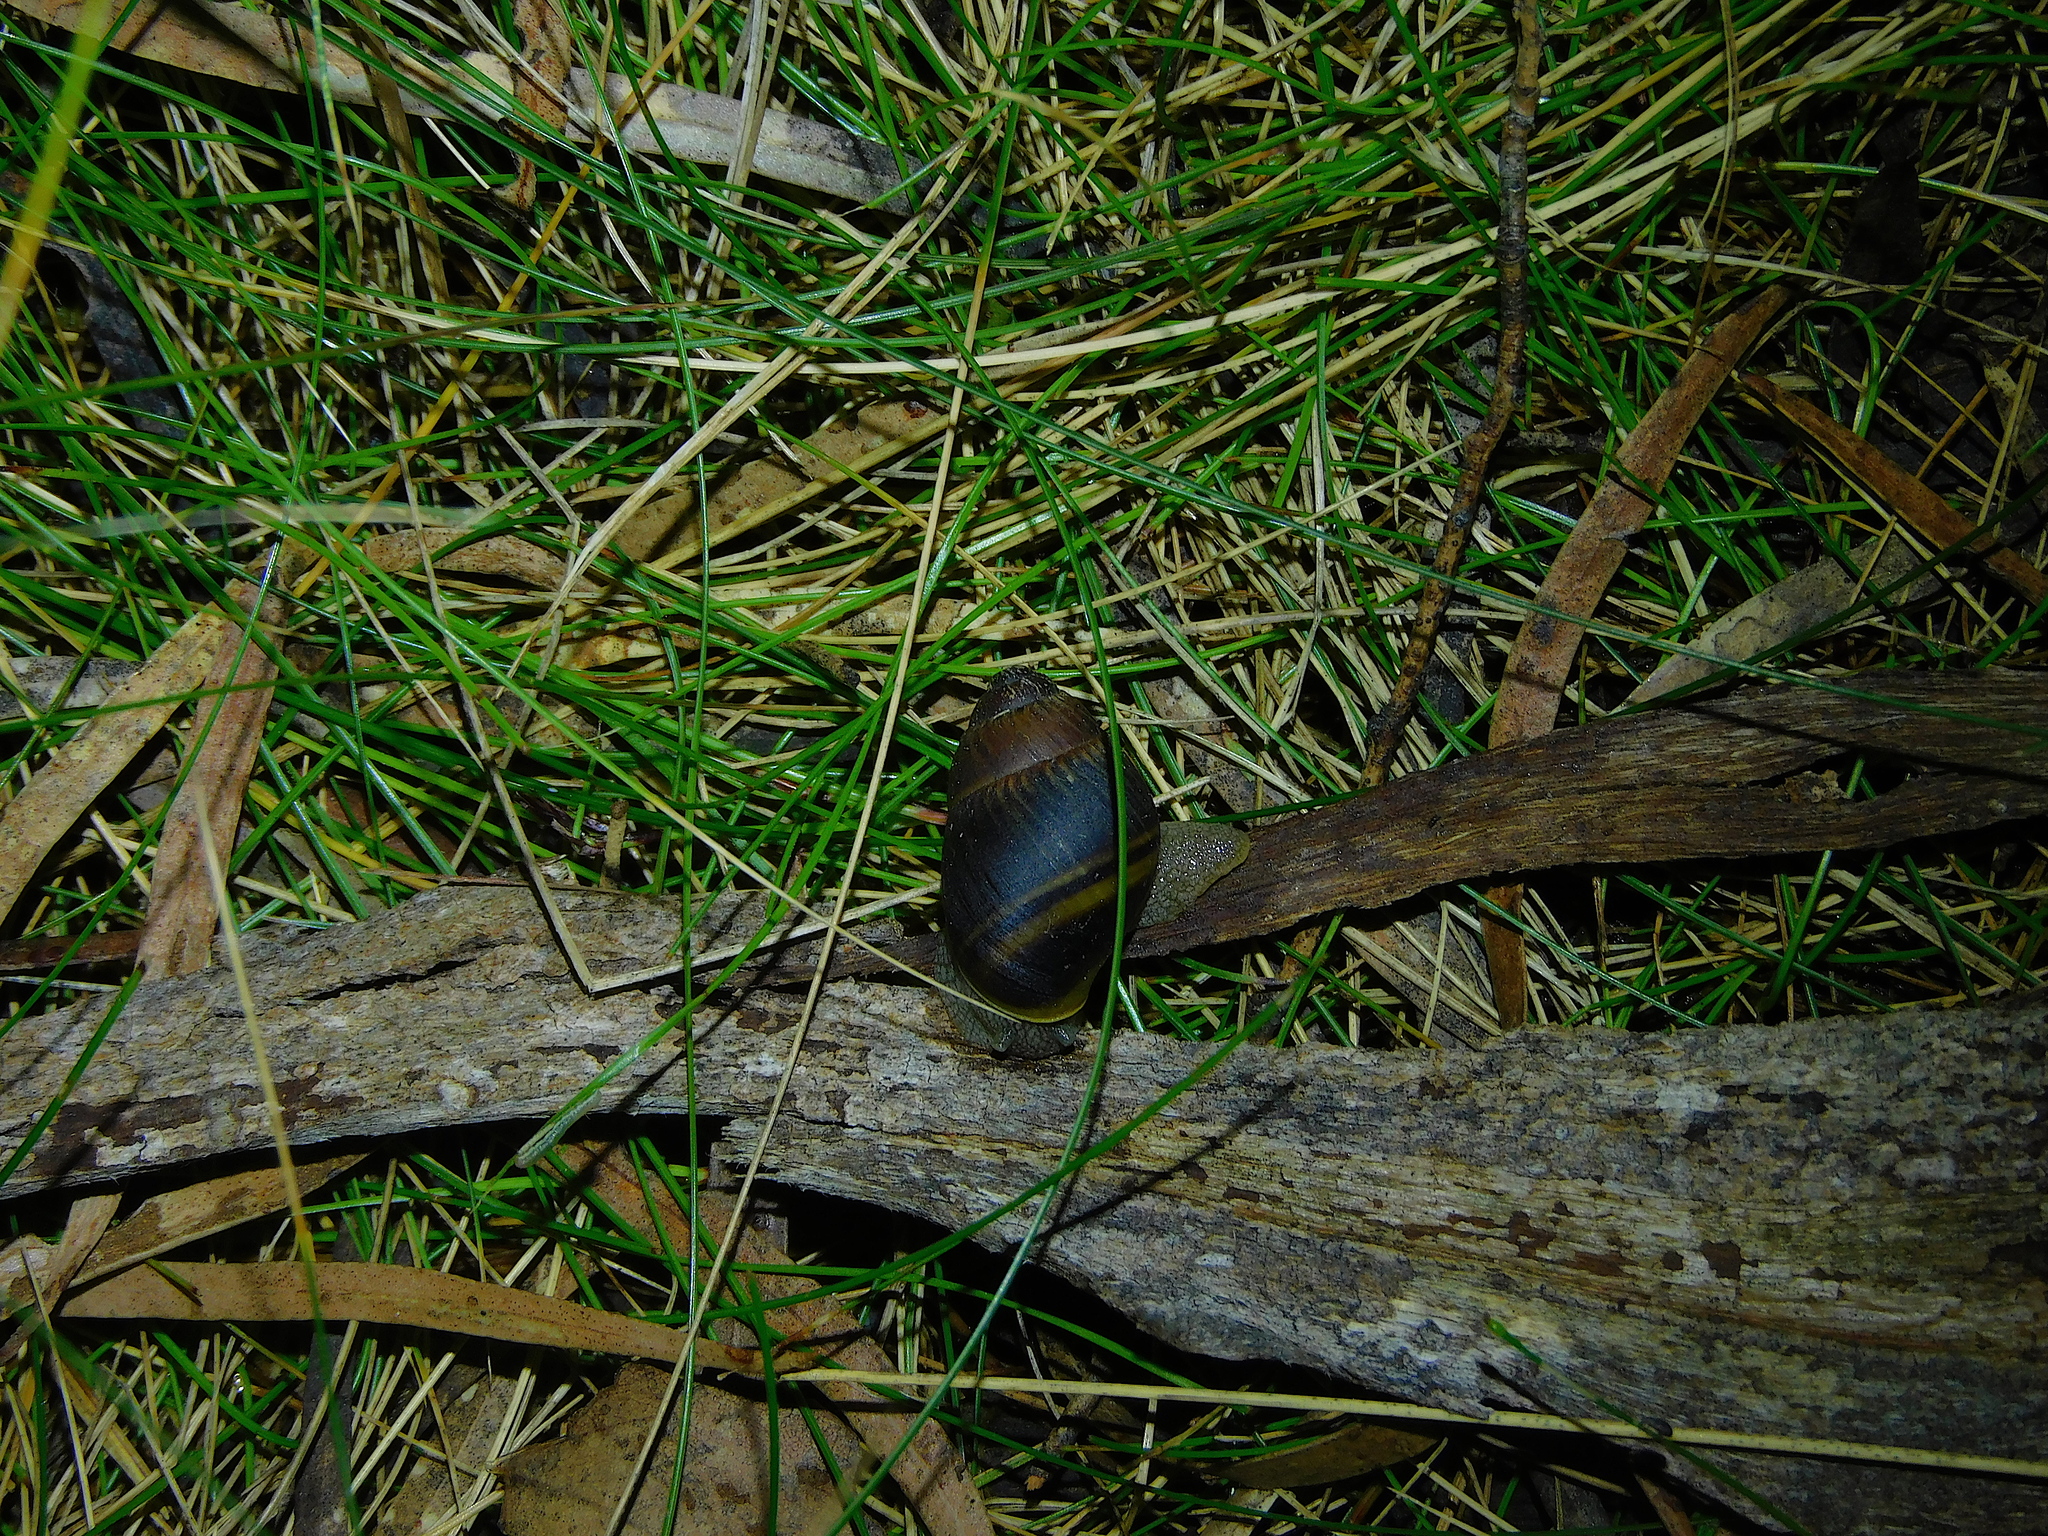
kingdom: Animalia
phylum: Mollusca
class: Gastropoda
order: Stylommatophora
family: Caryodidae
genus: Caryodes
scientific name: Caryodes dufresnii
